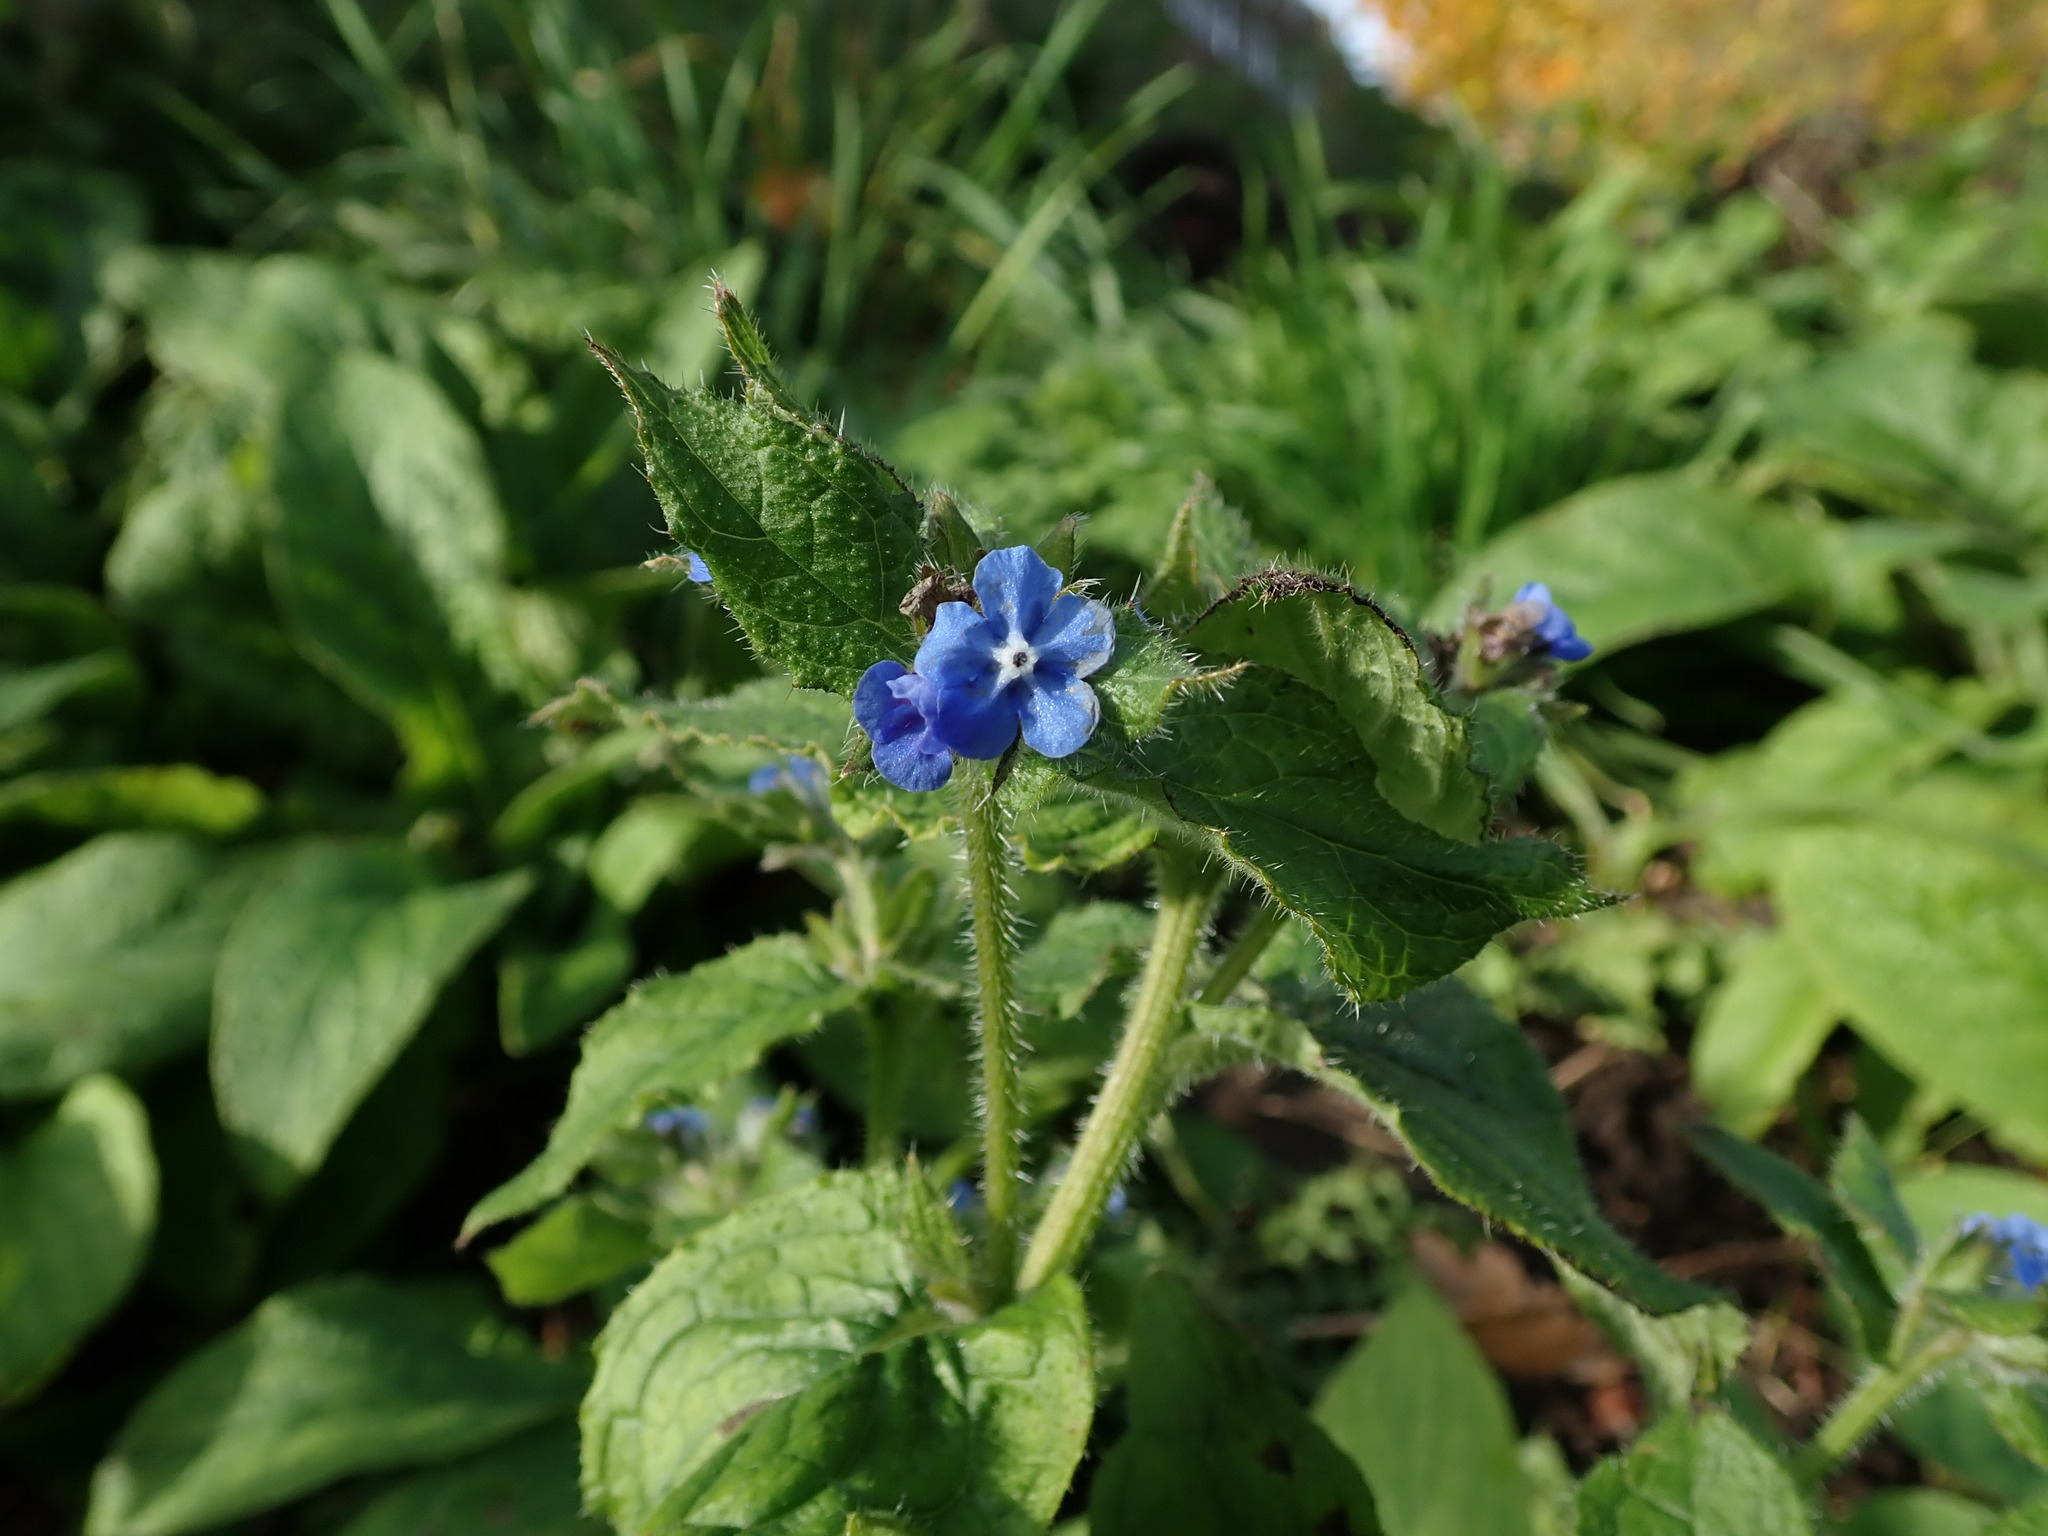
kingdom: Plantae
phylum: Tracheophyta
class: Magnoliopsida
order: Boraginales
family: Boraginaceae
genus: Pentaglottis
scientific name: Pentaglottis sempervirens
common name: Green alkanet
